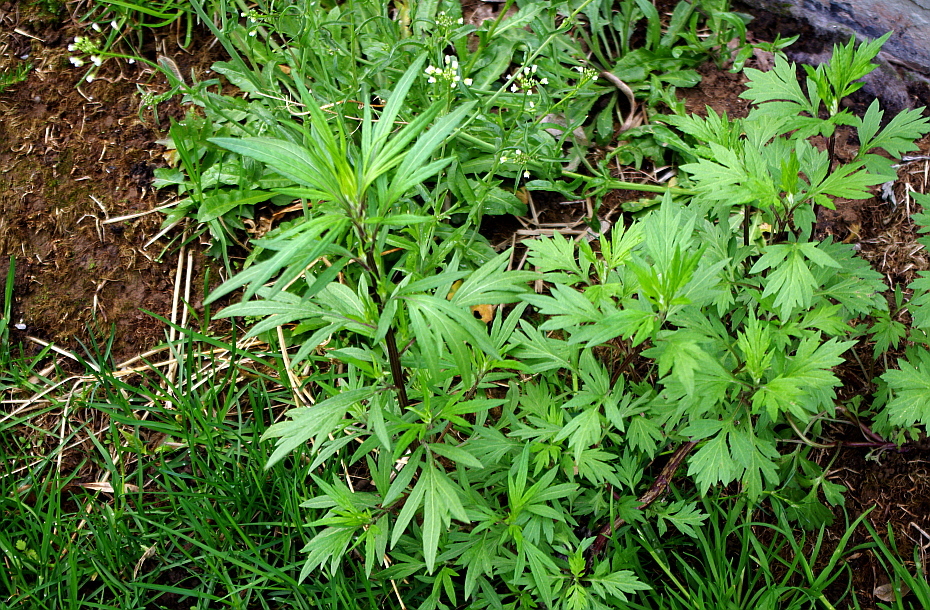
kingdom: Plantae
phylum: Tracheophyta
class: Magnoliopsida
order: Asterales
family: Asteraceae
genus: Artemisia
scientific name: Artemisia vulgaris
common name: Mugwort
